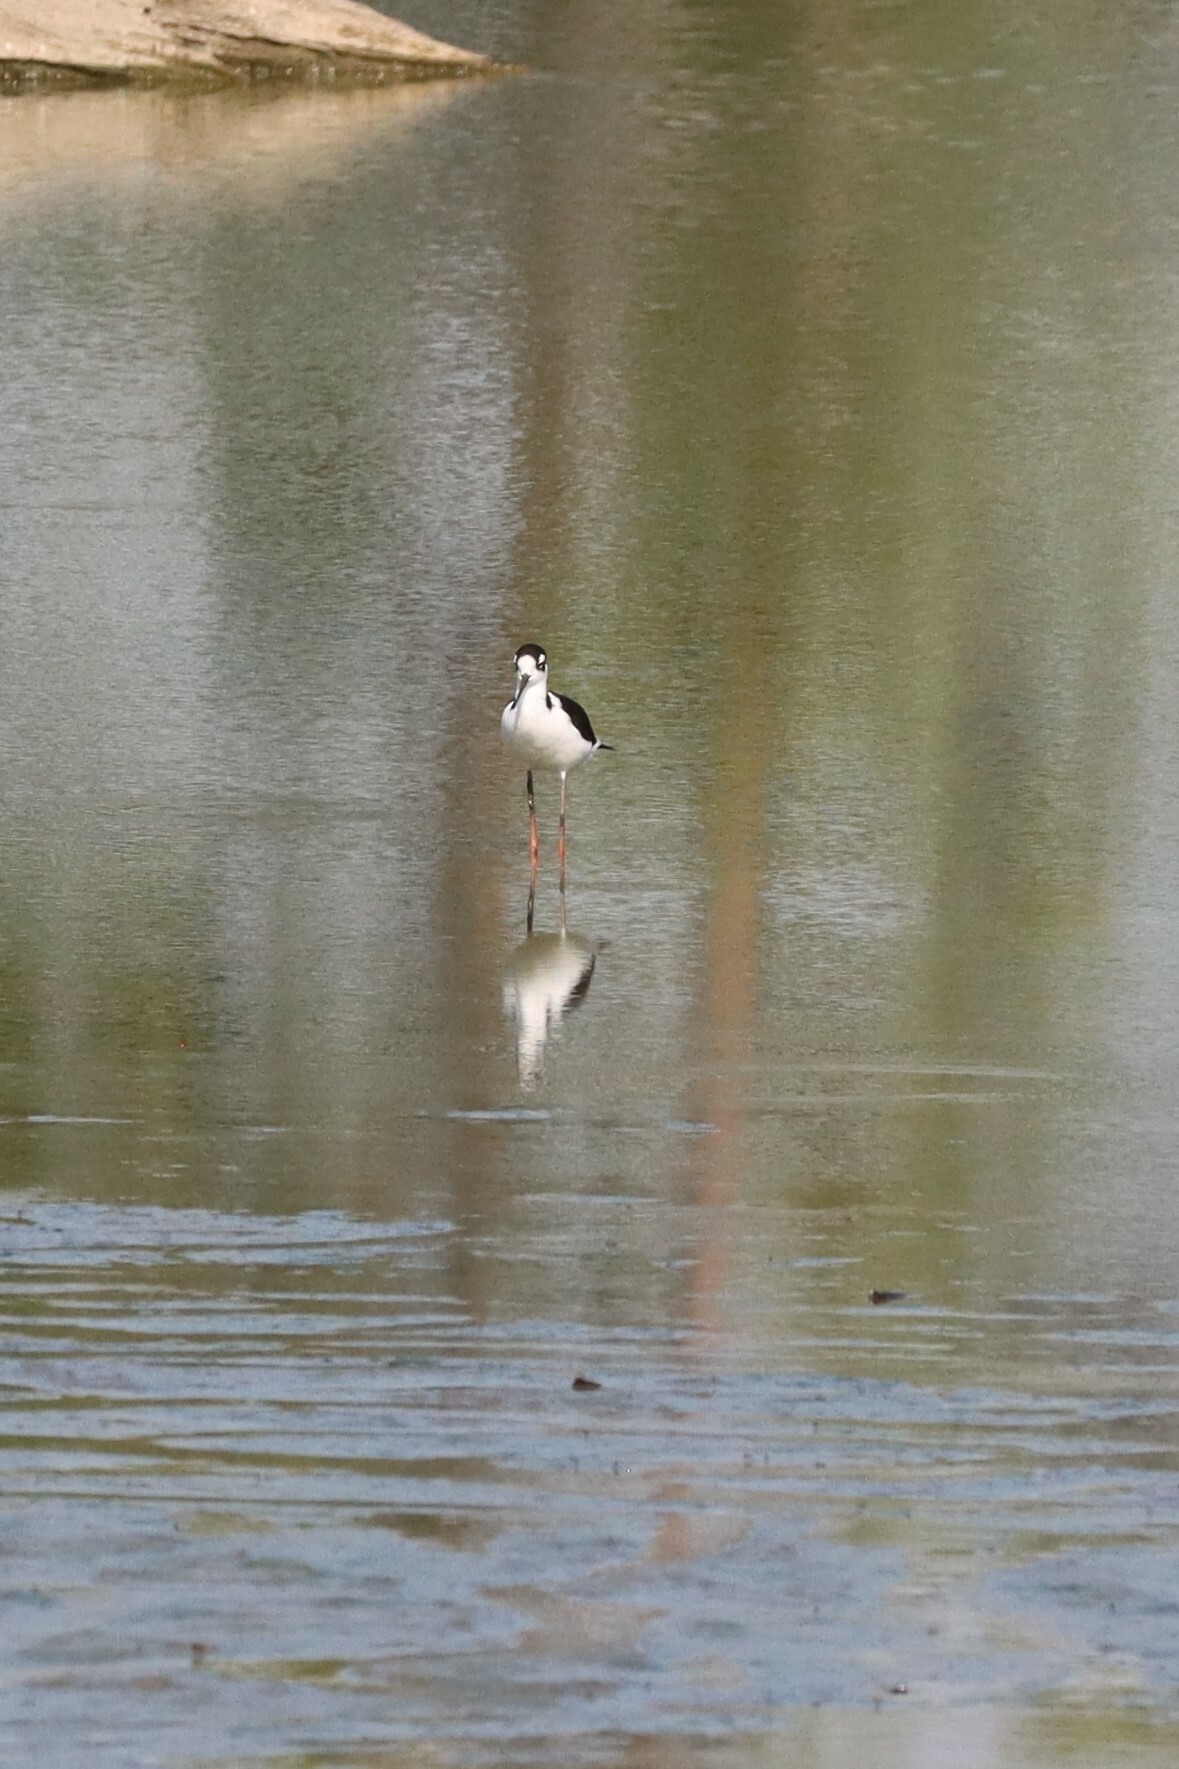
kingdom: Animalia
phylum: Chordata
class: Aves
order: Charadriiformes
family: Recurvirostridae
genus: Himantopus
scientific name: Himantopus mexicanus
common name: Black-necked stilt
